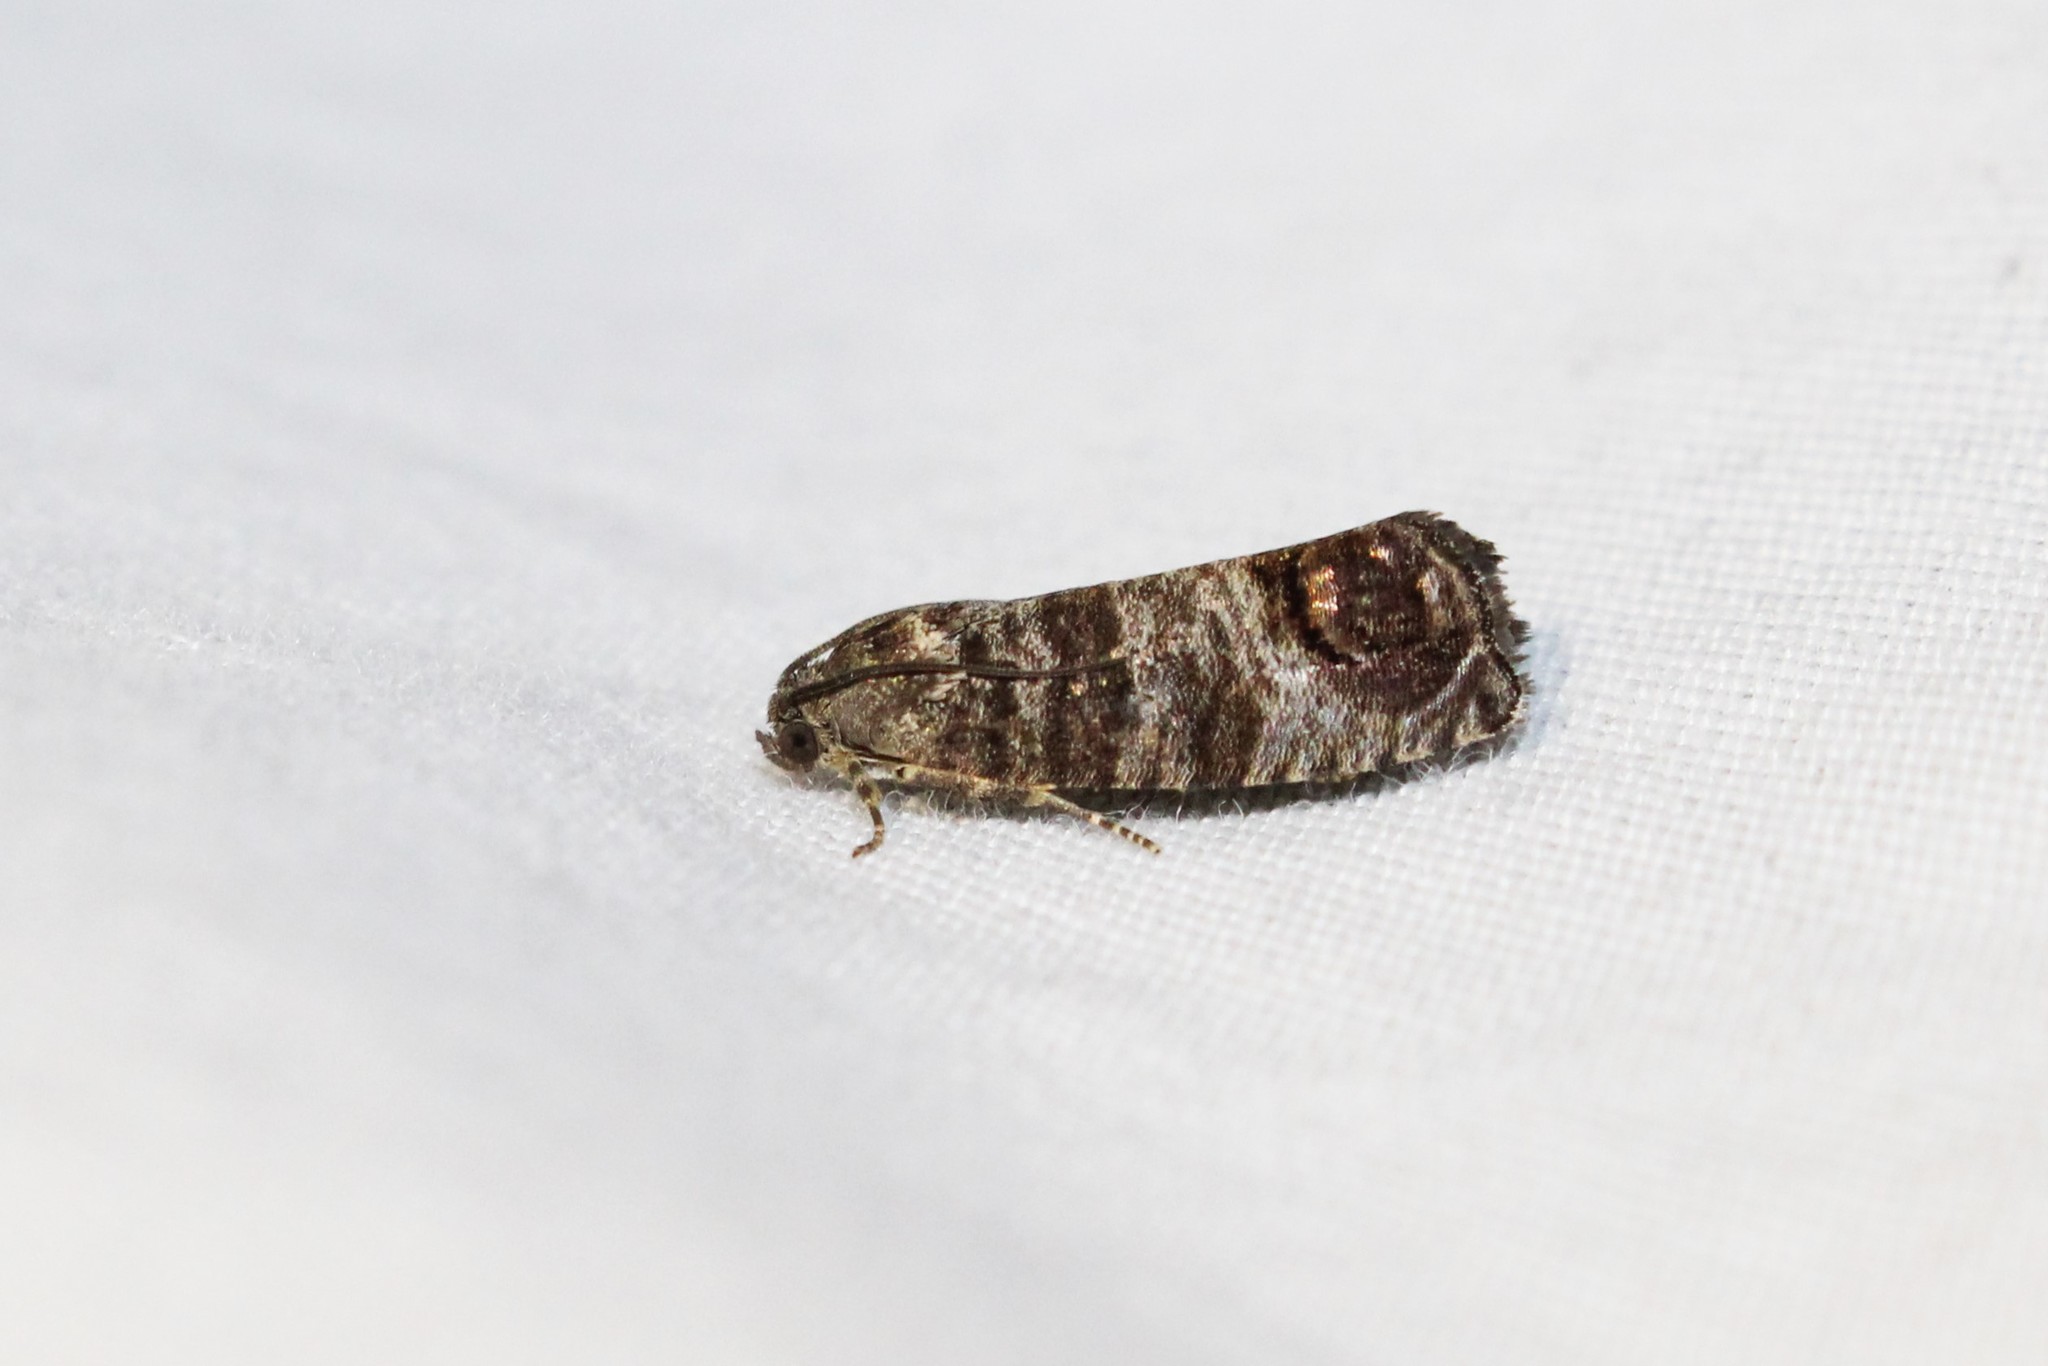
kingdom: Animalia
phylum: Arthropoda
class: Insecta
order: Lepidoptera
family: Tortricidae
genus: Cydia
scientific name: Cydia pomonella
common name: Codling moth
